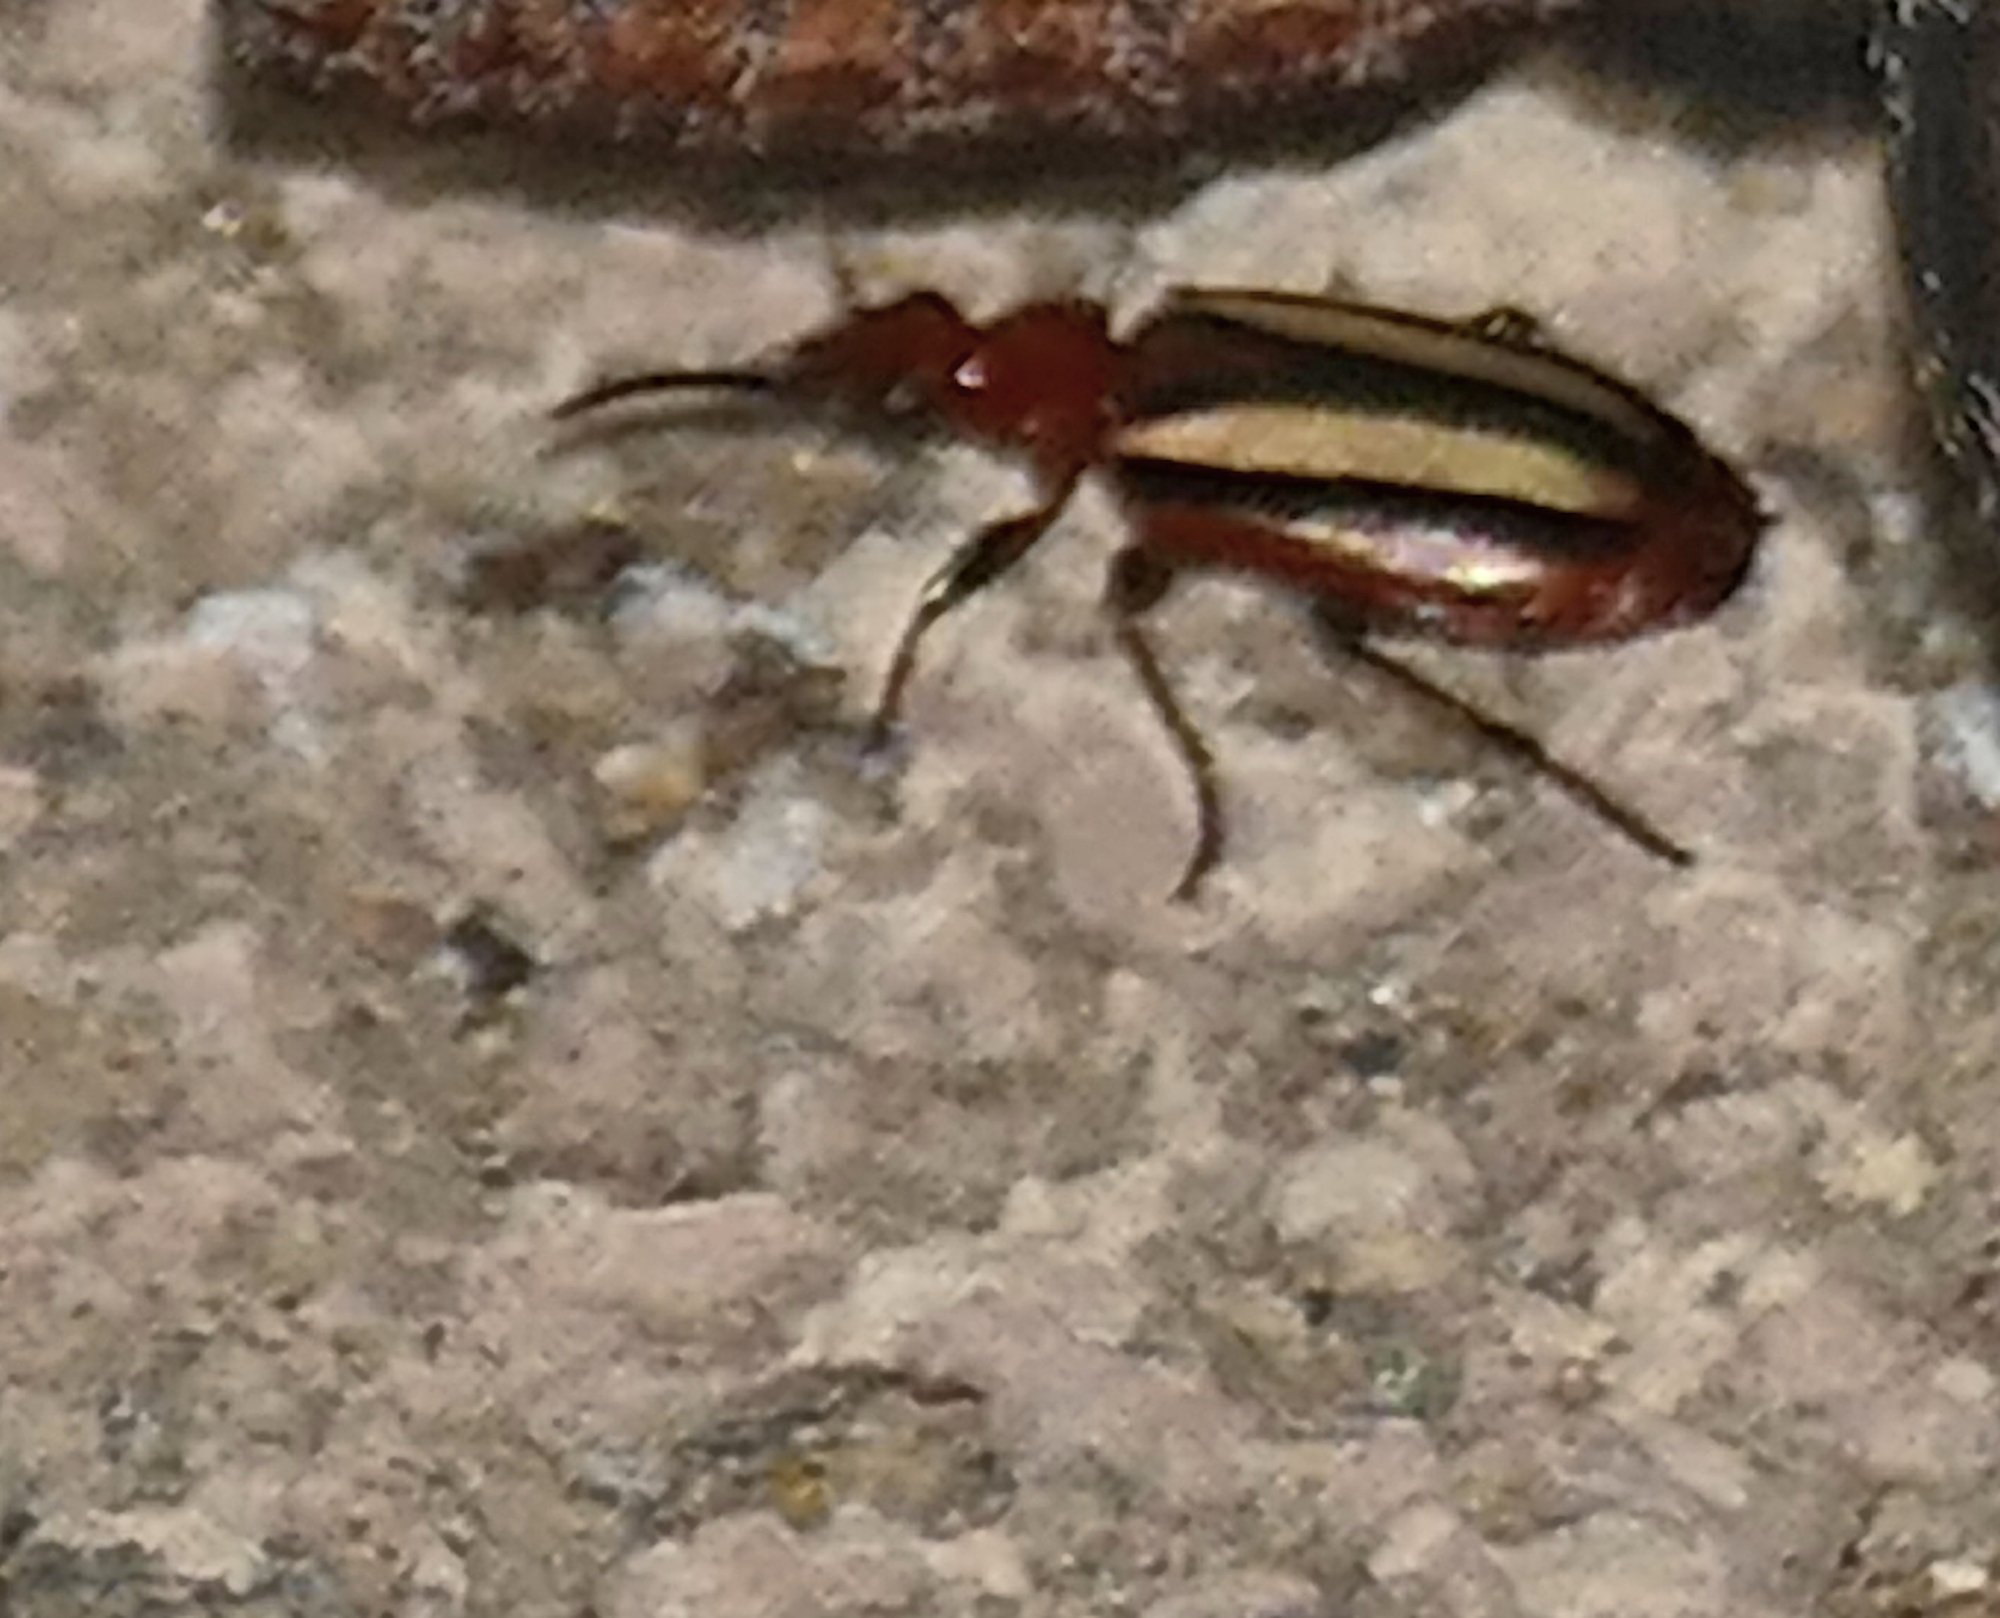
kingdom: Animalia
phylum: Arthropoda
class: Insecta
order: Coleoptera
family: Carabidae
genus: Lebia
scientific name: Lebia vittata
